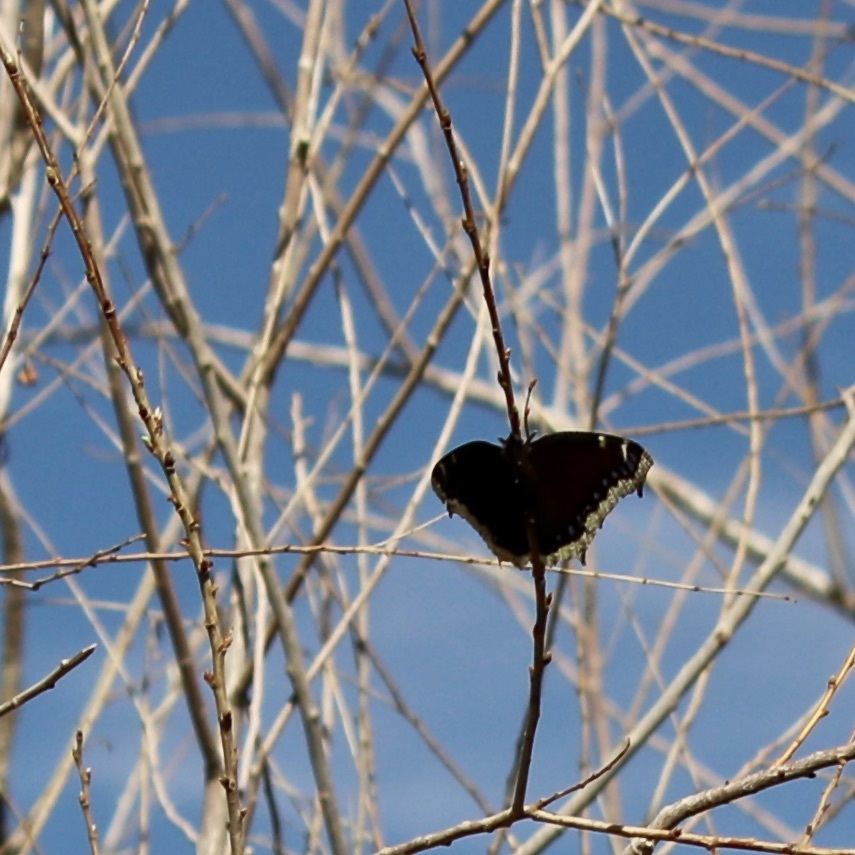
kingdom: Animalia
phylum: Arthropoda
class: Insecta
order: Lepidoptera
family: Nymphalidae
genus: Nymphalis
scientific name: Nymphalis antiopa
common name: Camberwell beauty
